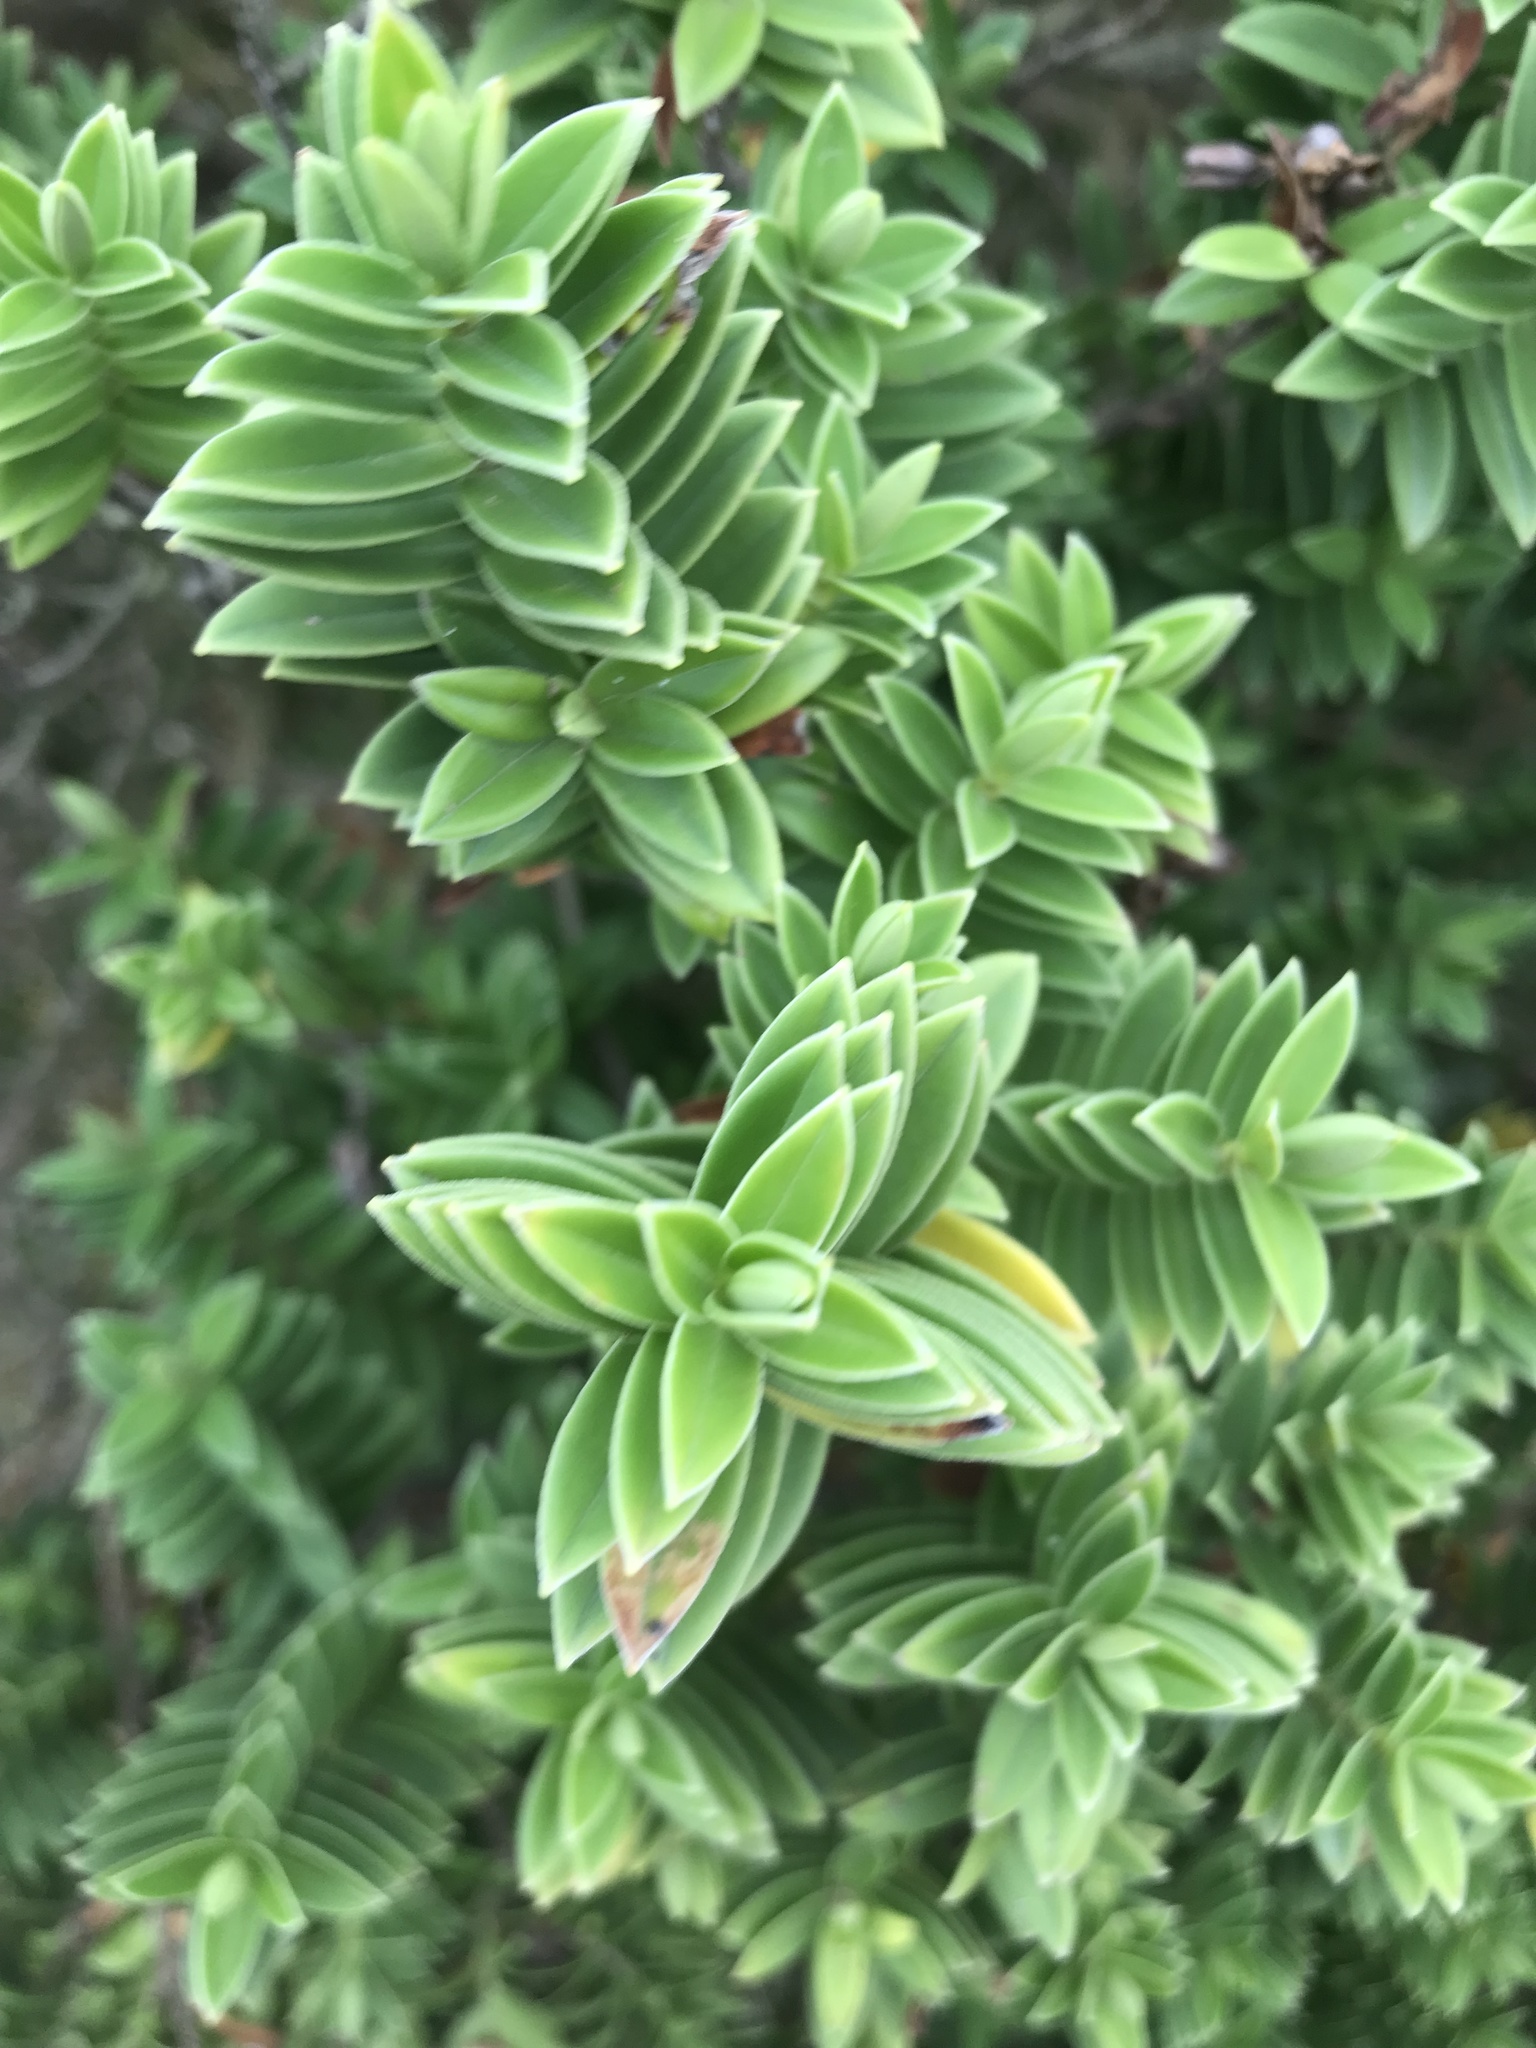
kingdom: Plantae
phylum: Tracheophyta
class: Magnoliopsida
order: Lamiales
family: Plantaginaceae
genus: Veronica
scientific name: Veronica elliptica
